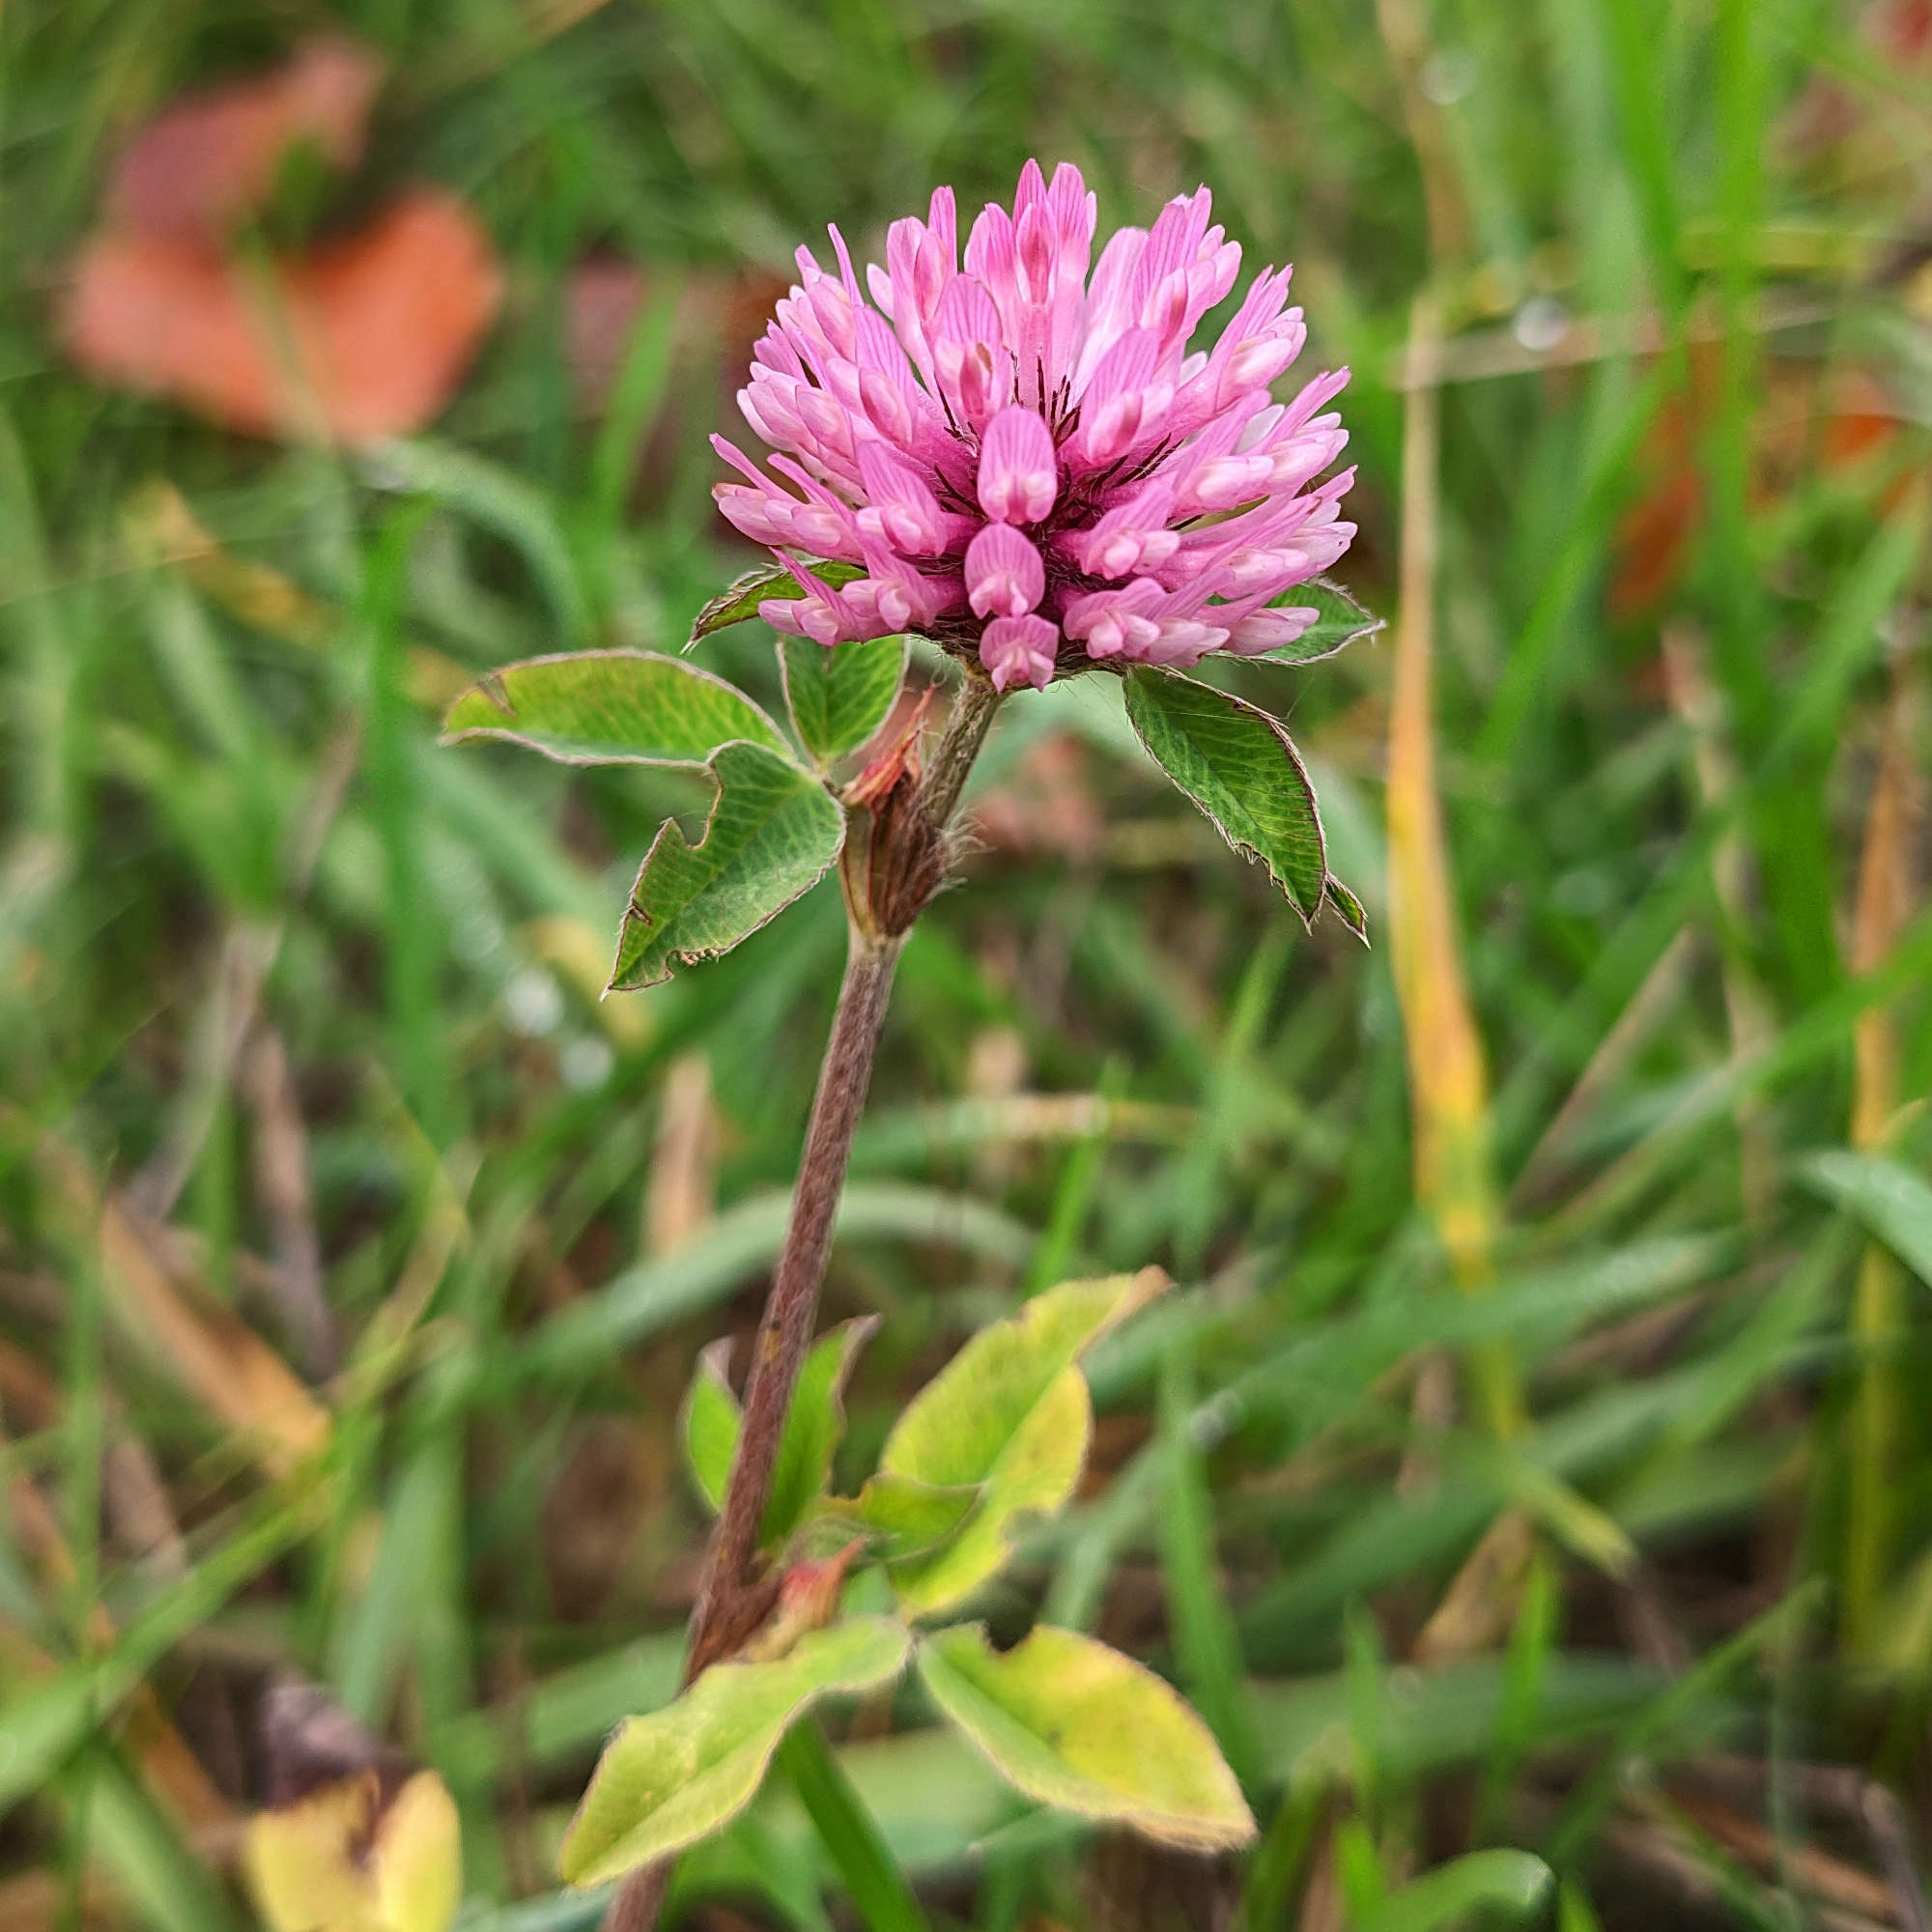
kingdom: Plantae
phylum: Tracheophyta
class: Magnoliopsida
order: Fabales
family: Fabaceae
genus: Trifolium
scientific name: Trifolium pratense
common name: Red clover
